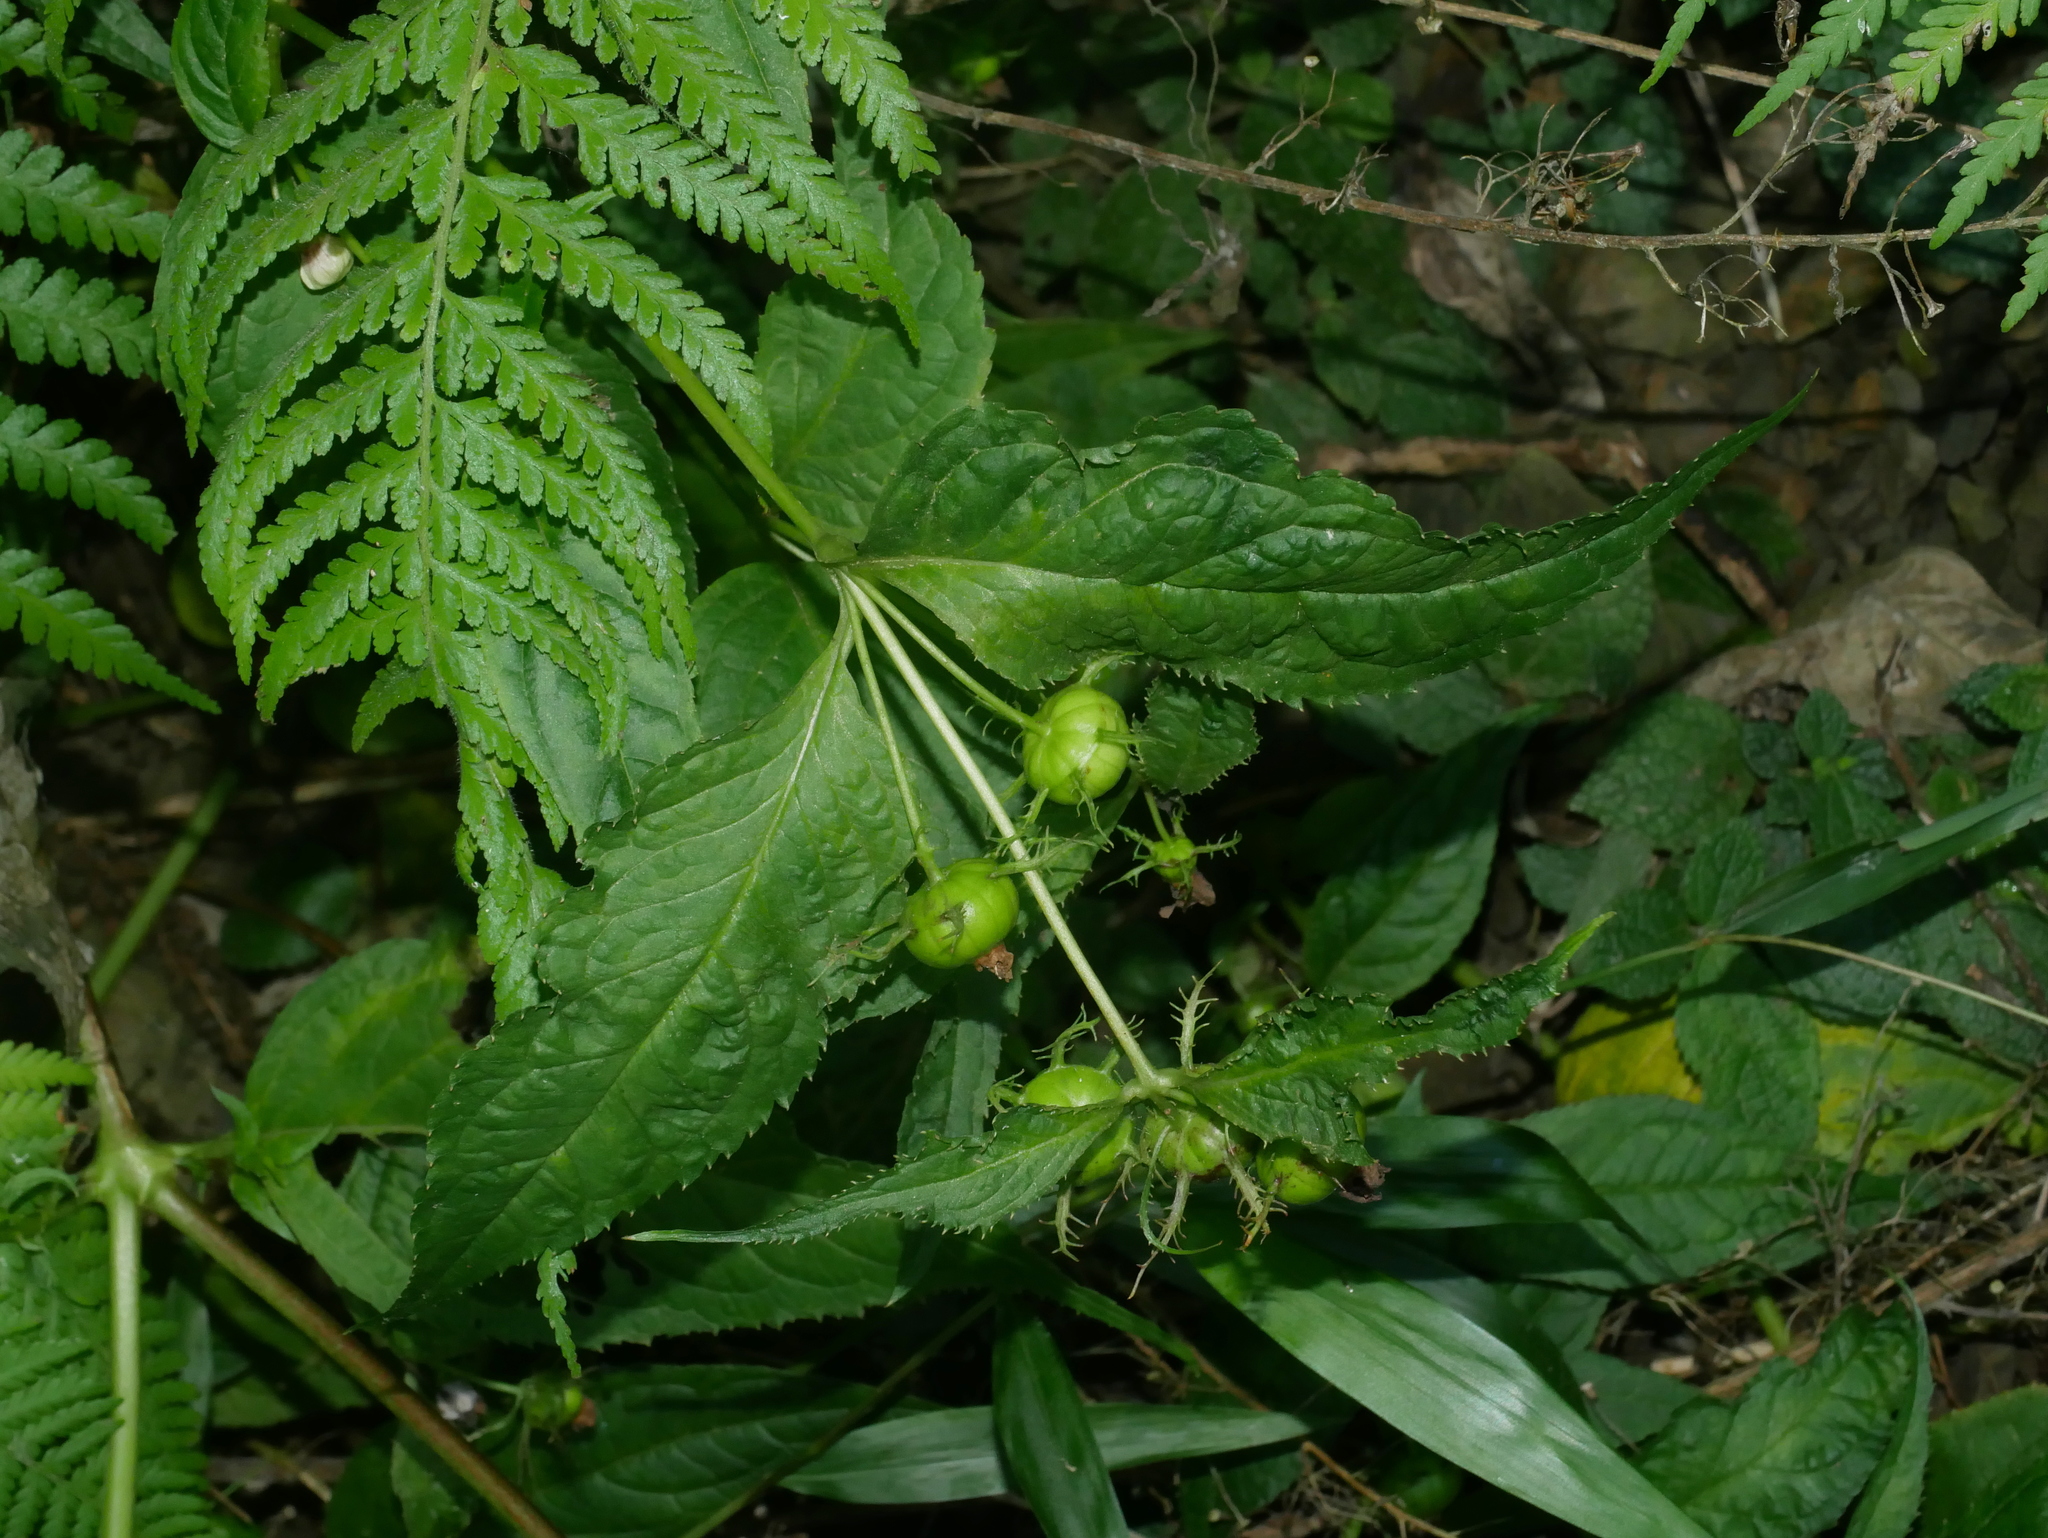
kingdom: Plantae
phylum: Tracheophyta
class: Magnoliopsida
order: Asterales
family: Campanulaceae
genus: Cyclocodon
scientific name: Cyclocodon lancifolius
